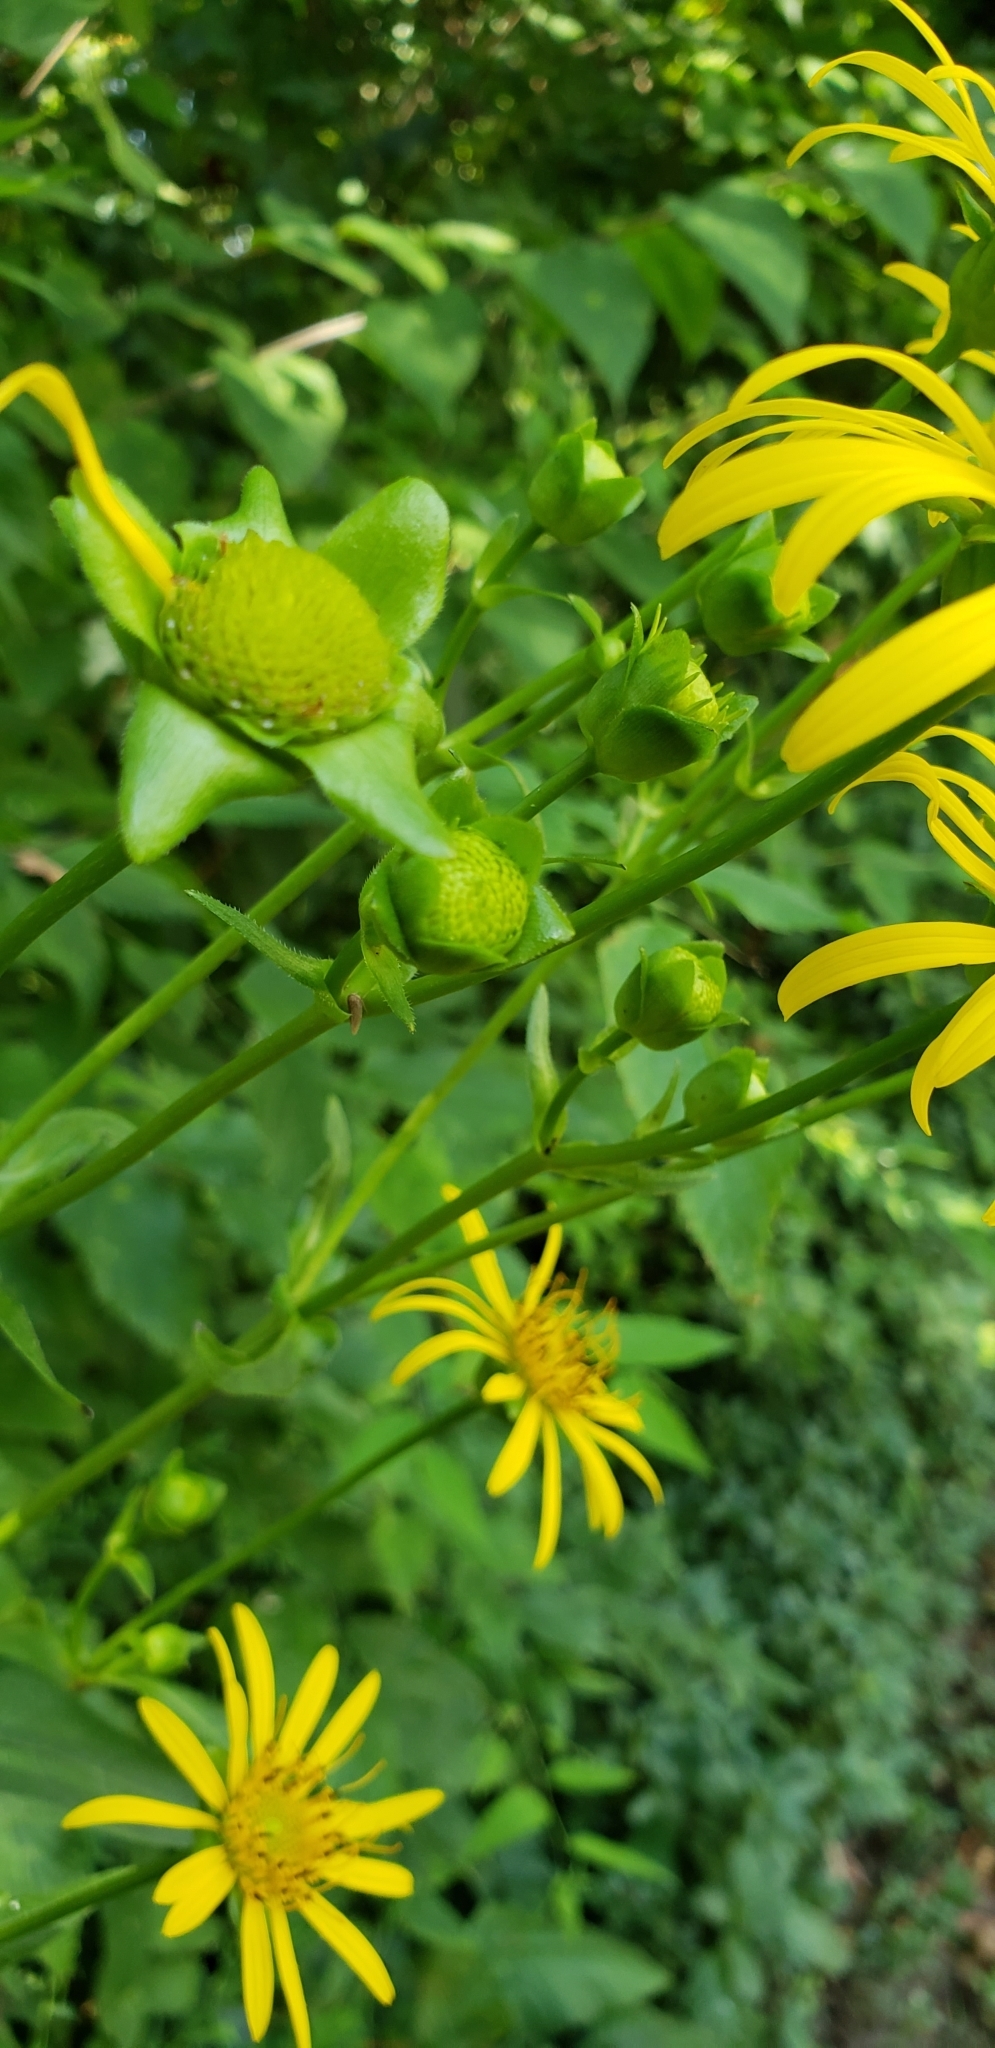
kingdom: Plantae
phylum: Tracheophyta
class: Magnoliopsida
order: Asterales
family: Asteraceae
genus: Silphium
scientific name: Silphium perfoliatum
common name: Cup-plant
